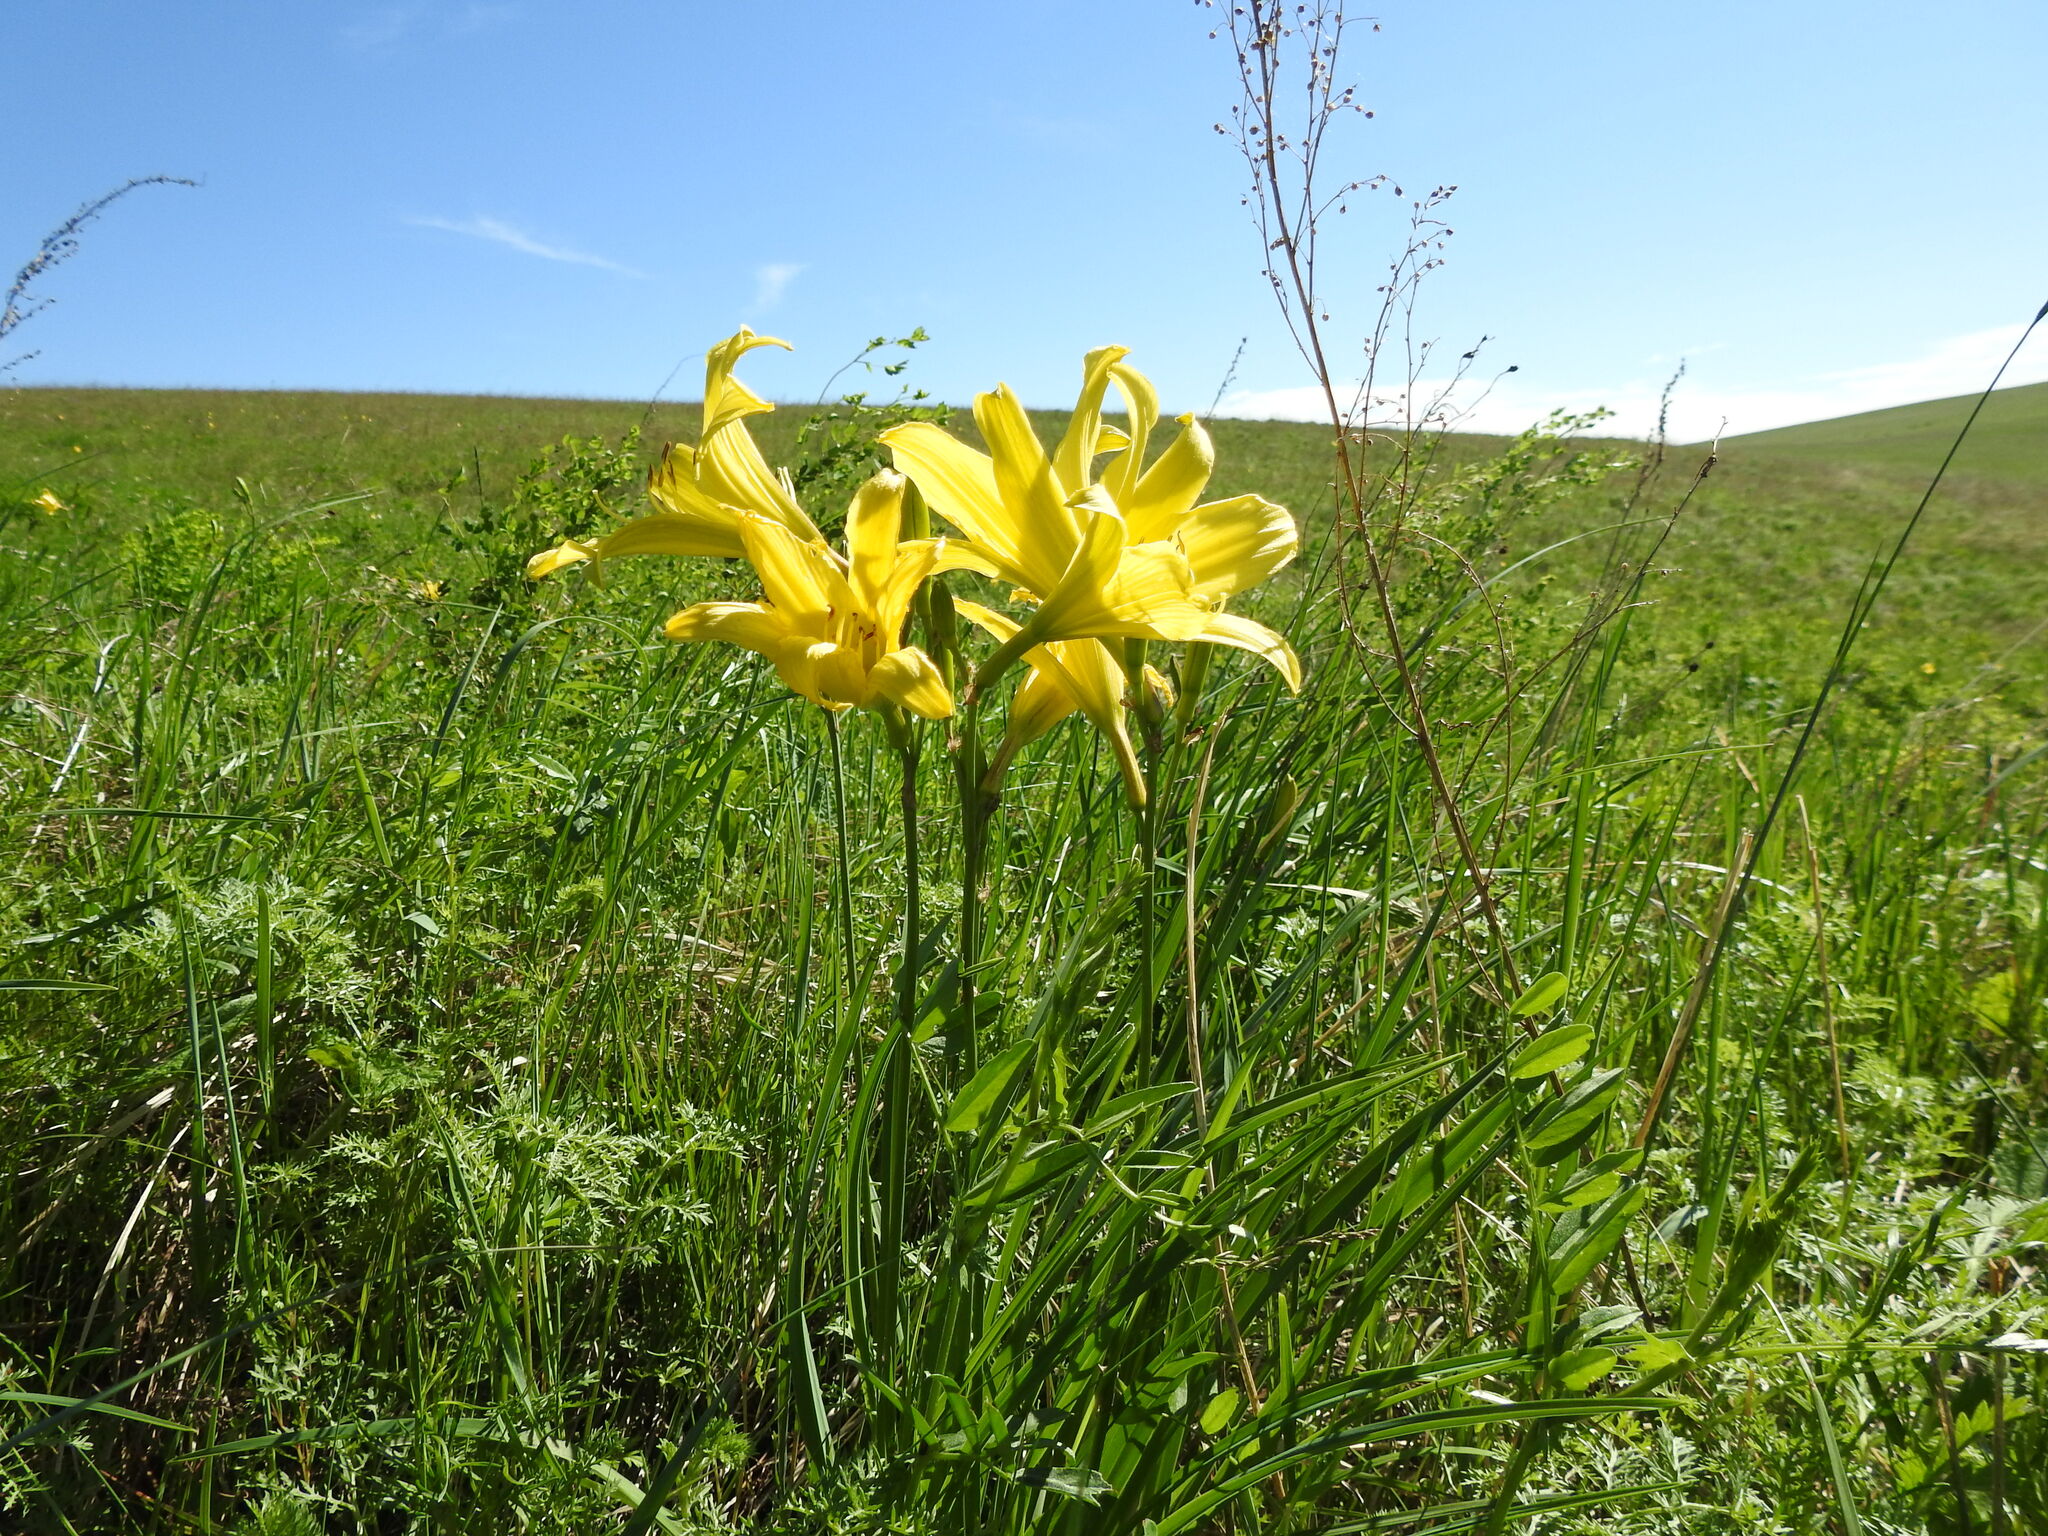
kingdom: Plantae
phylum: Tracheophyta
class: Liliopsida
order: Asparagales
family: Asphodelaceae
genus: Hemerocallis
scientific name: Hemerocallis minor
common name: Small daylily
